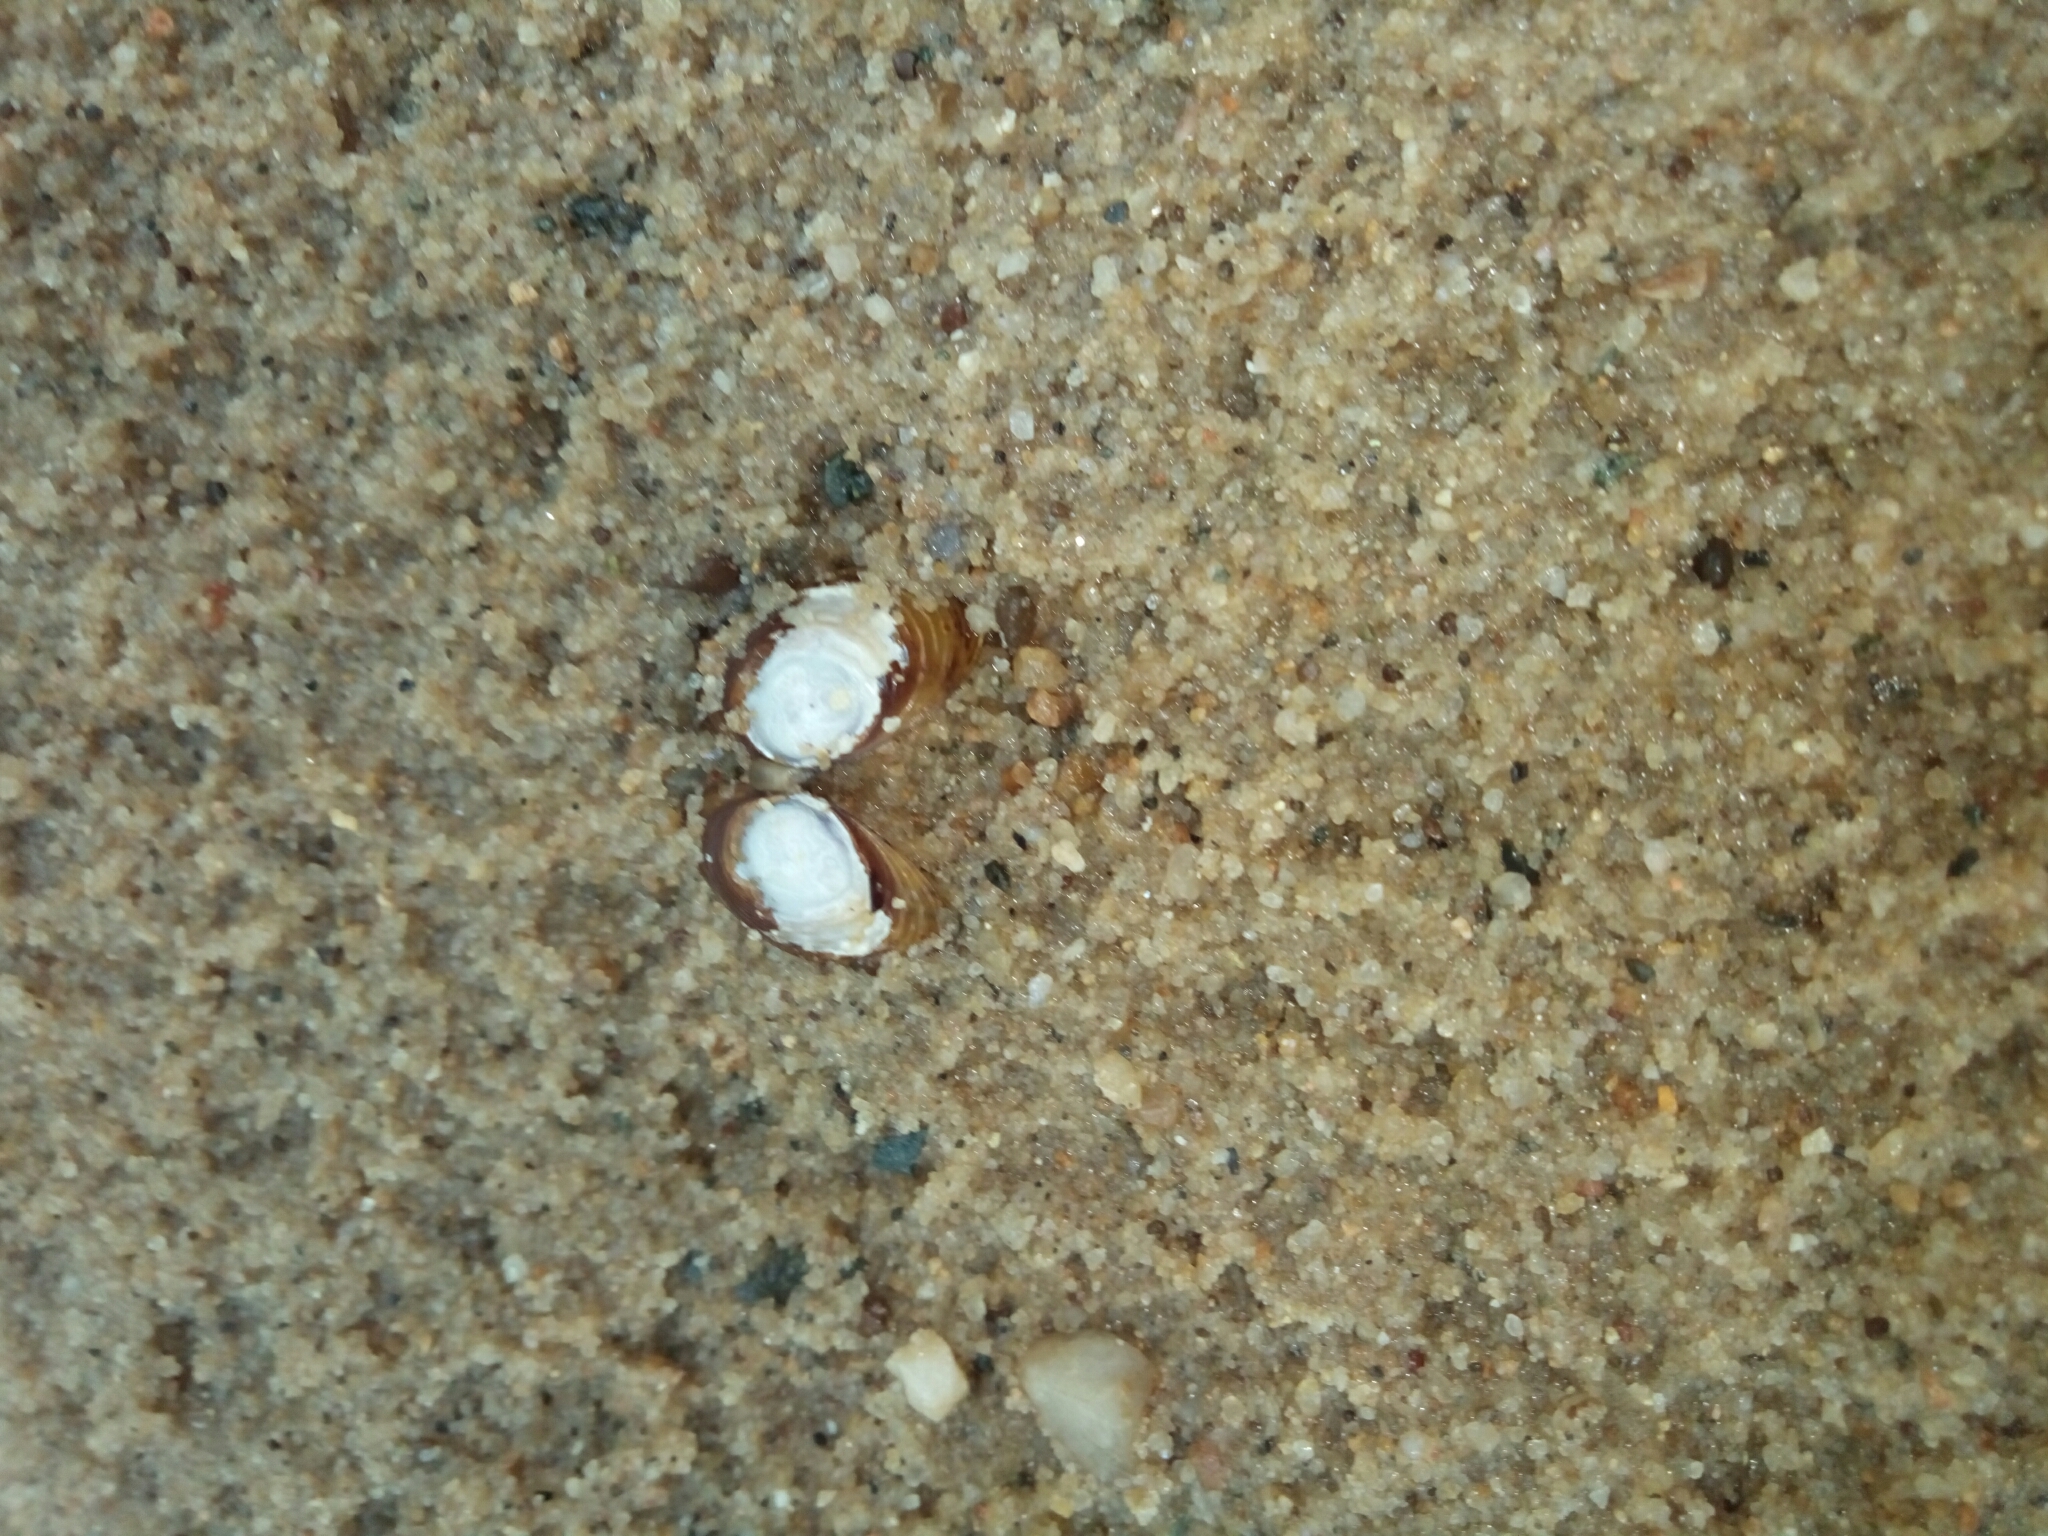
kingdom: Animalia
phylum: Mollusca
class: Bivalvia
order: Venerida
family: Cyrenidae
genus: Corbicula
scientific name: Corbicula fluminea
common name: Asian clam
